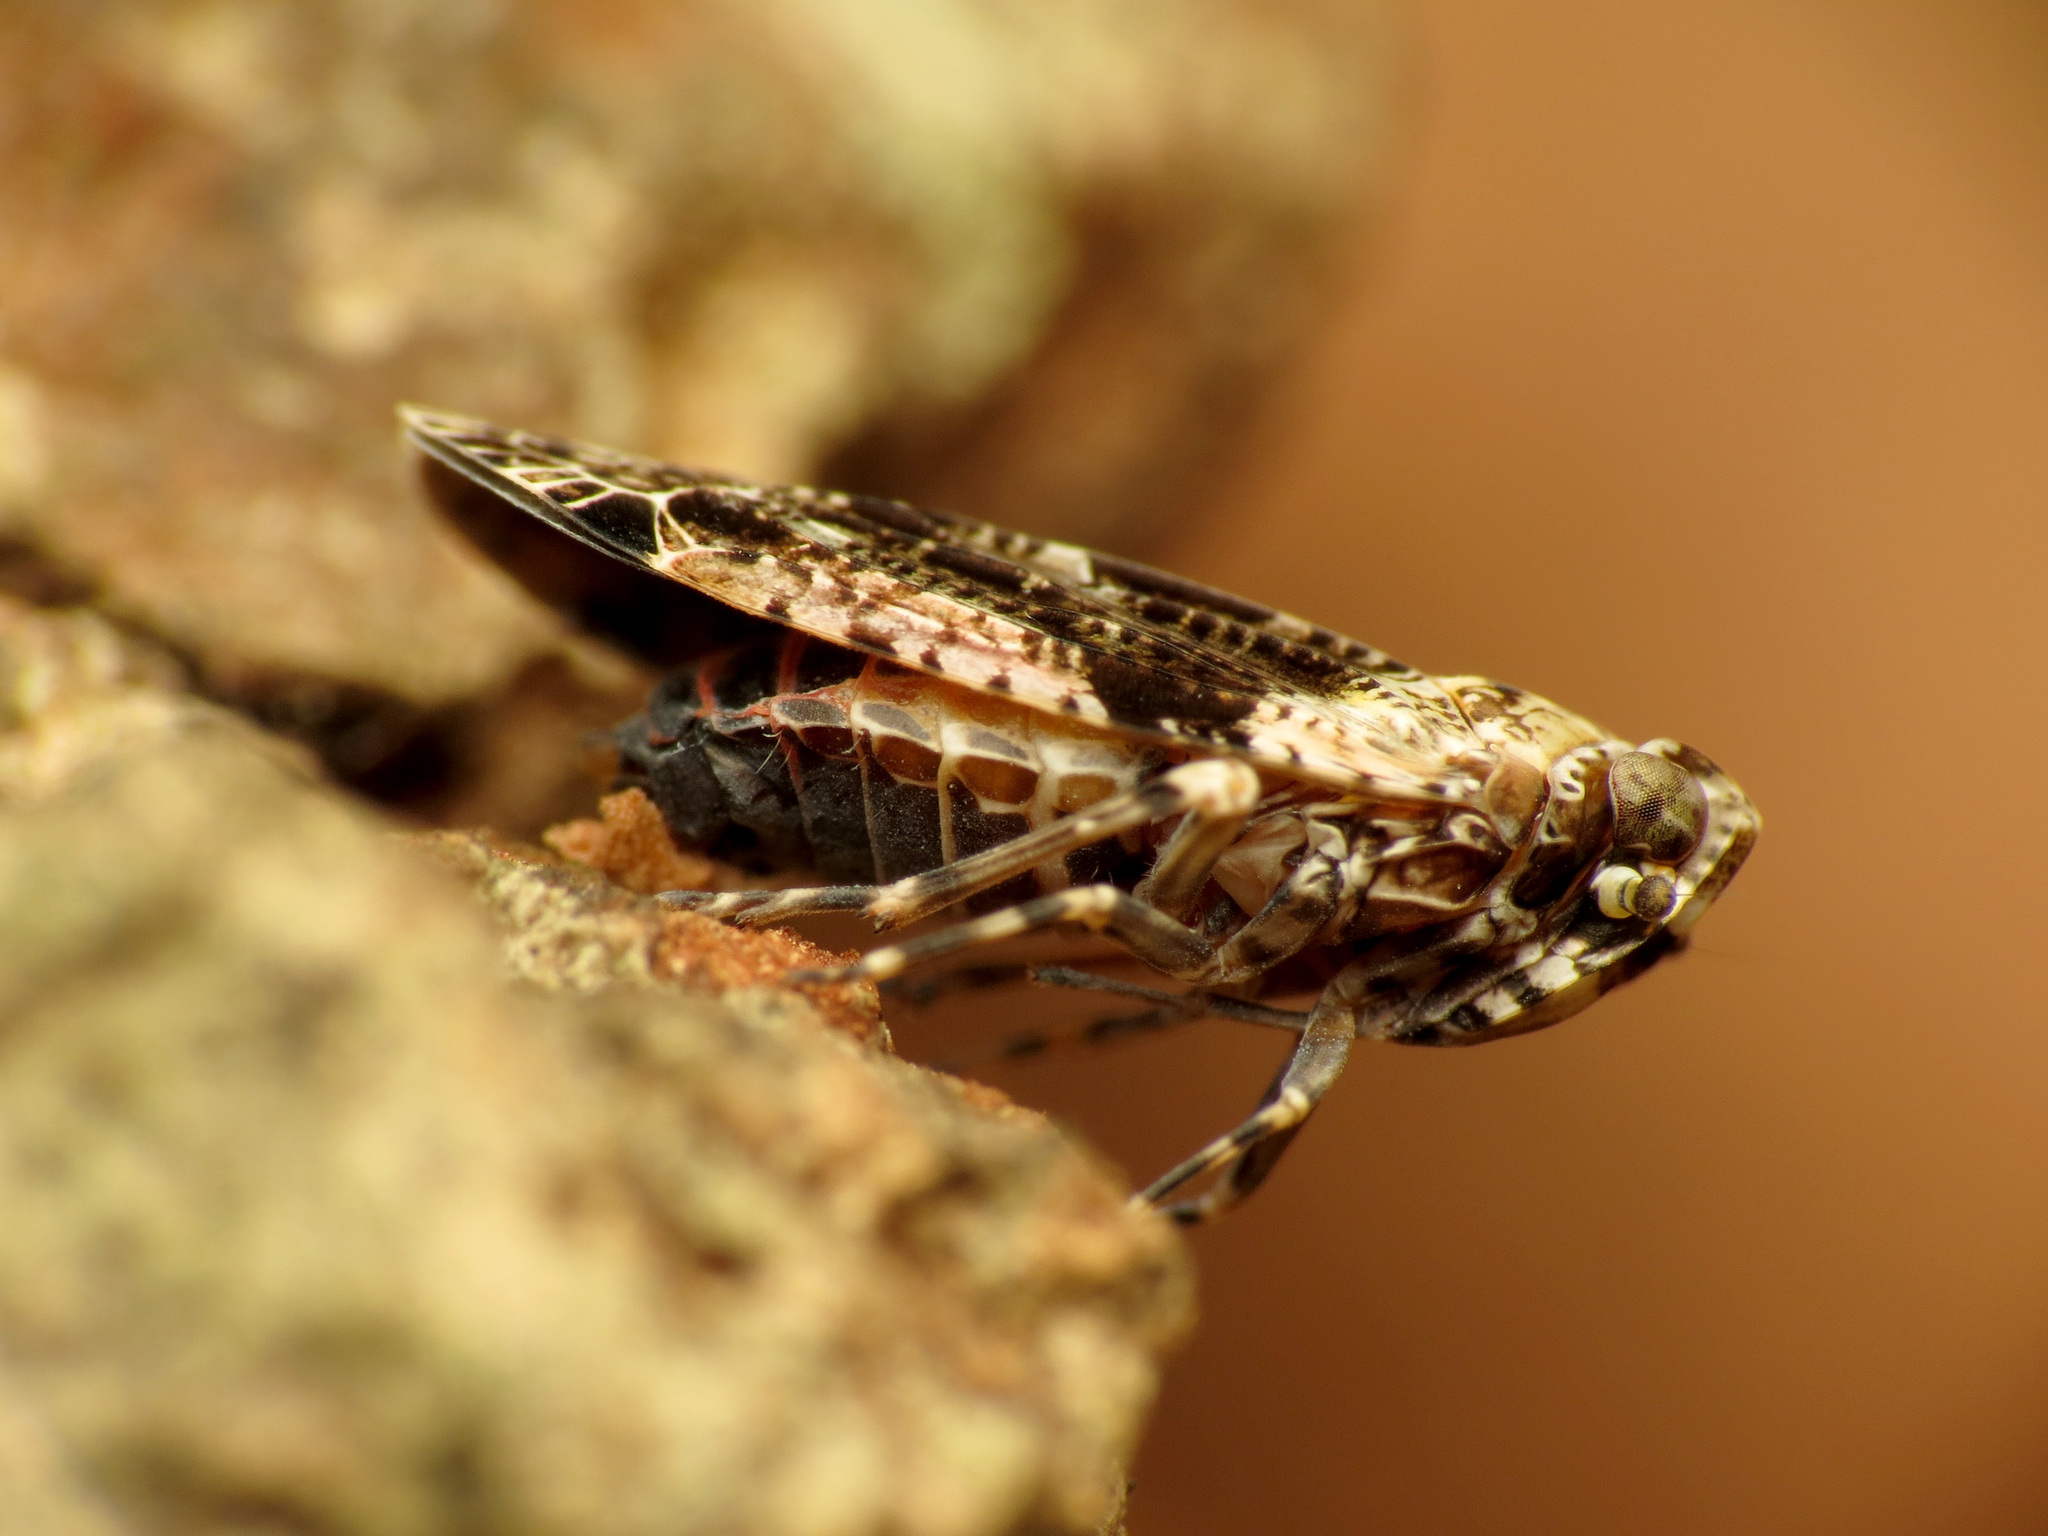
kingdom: Animalia
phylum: Arthropoda
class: Insecta
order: Hemiptera
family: Achilidae
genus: Catonia
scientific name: Catonia nava
